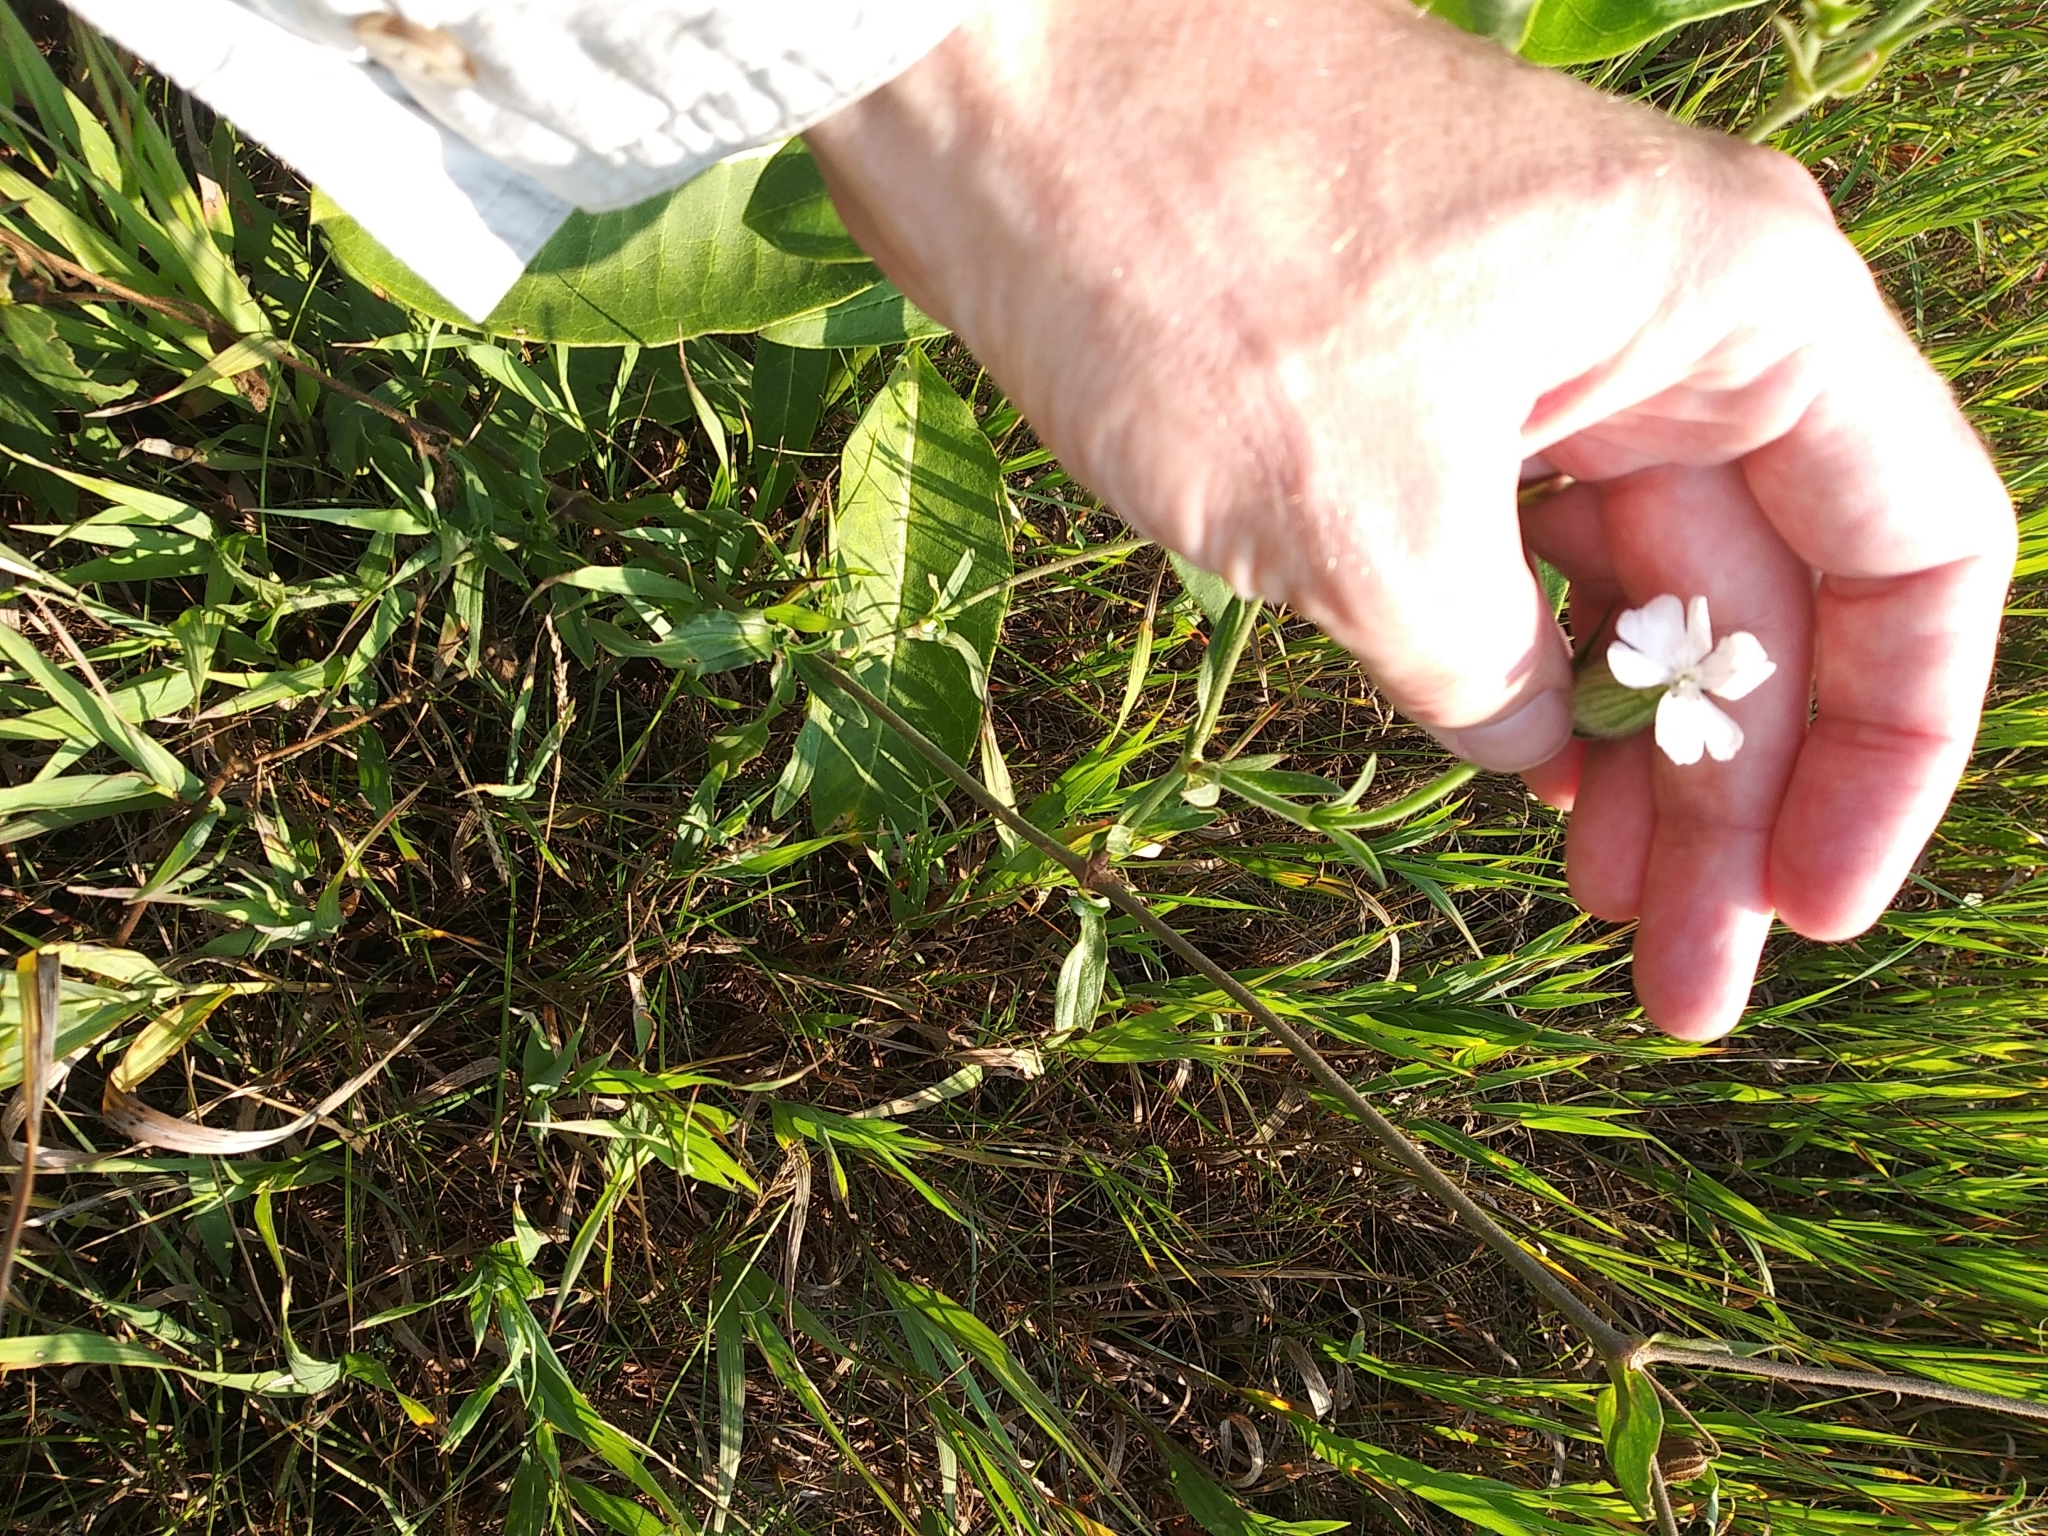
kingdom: Plantae
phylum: Tracheophyta
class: Magnoliopsida
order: Caryophyllales
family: Caryophyllaceae
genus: Silene
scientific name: Silene latifolia
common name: White campion
